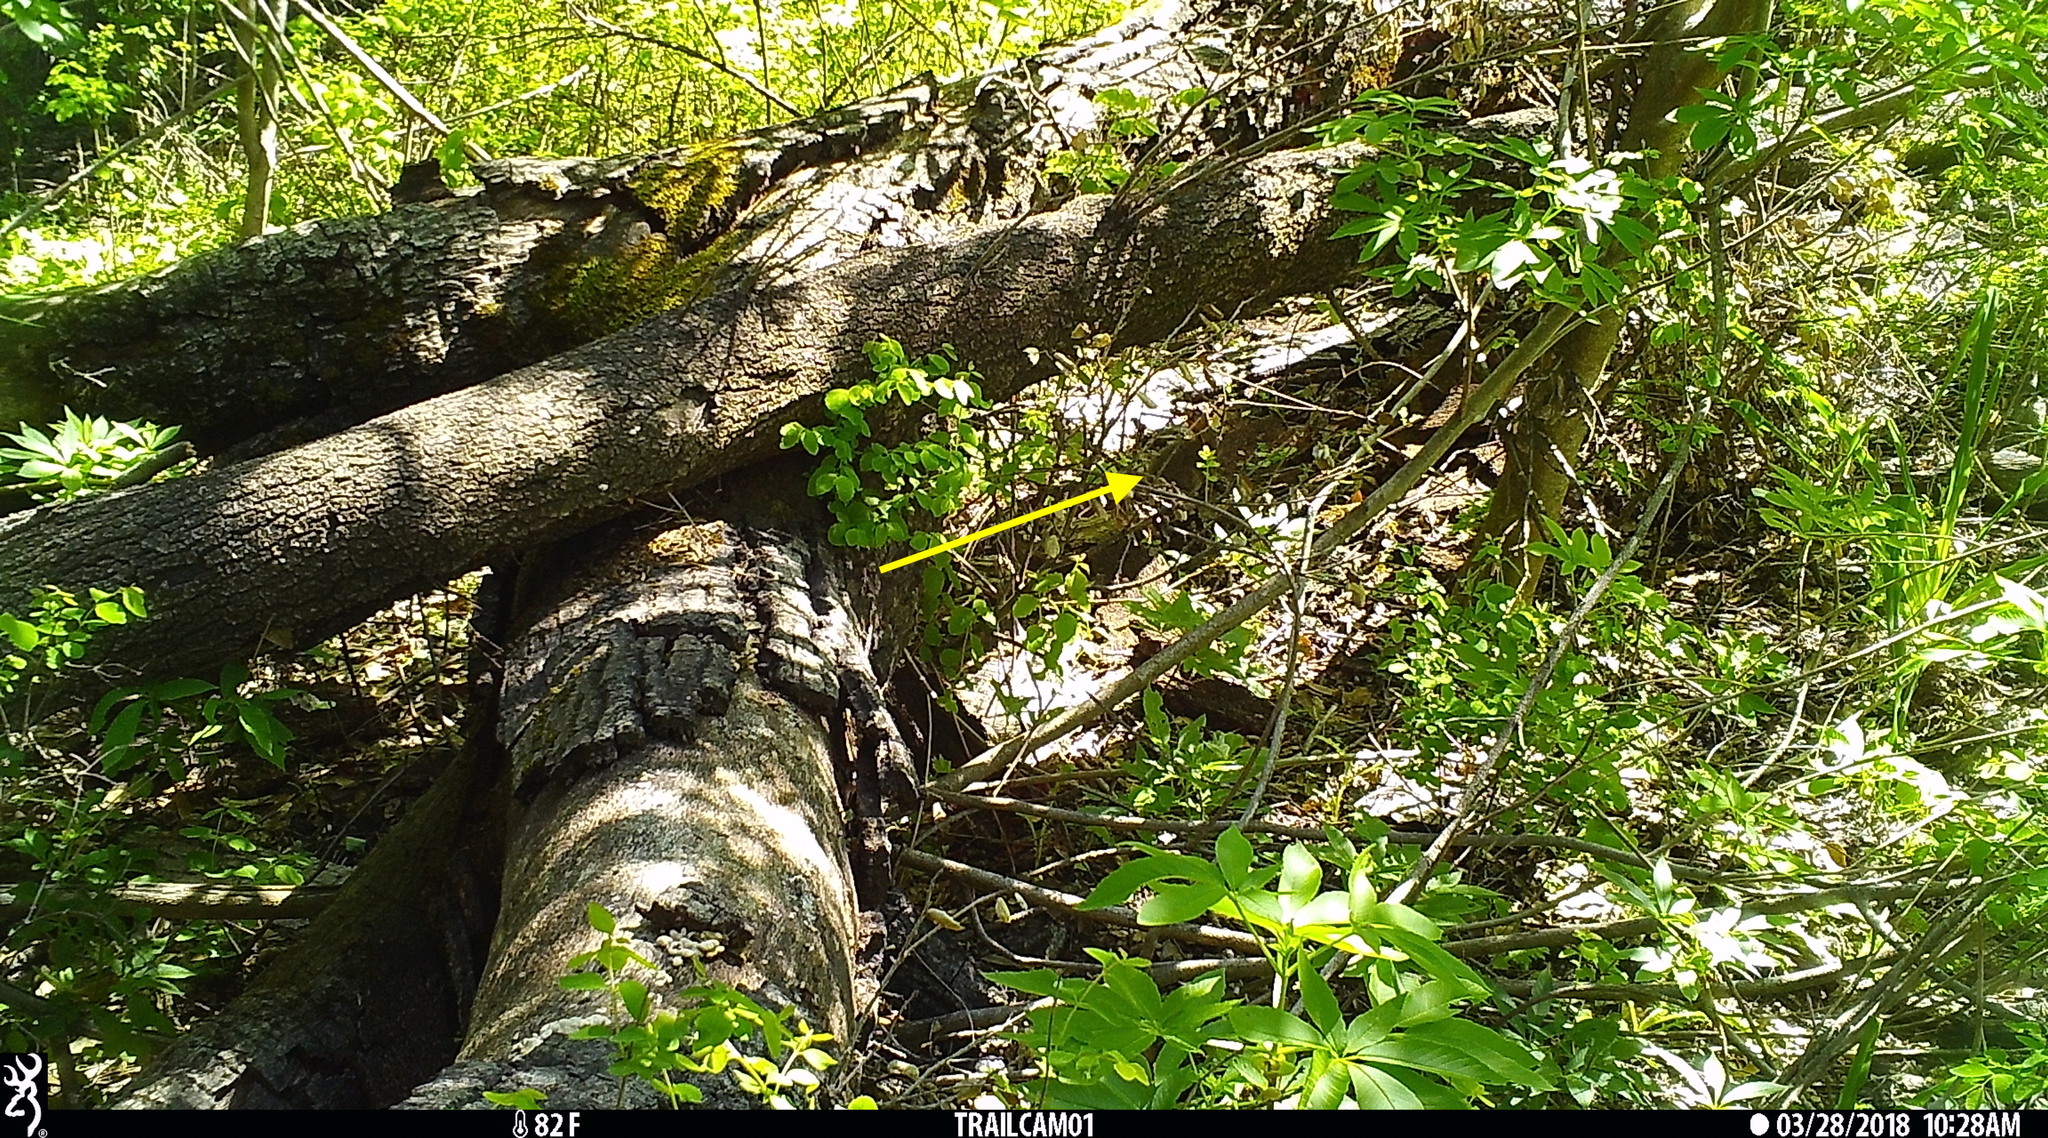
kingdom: Animalia
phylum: Chordata
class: Mammalia
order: Lagomorpha
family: Leporidae
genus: Sylvilagus
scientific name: Sylvilagus bachmani
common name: Brush rabbit
